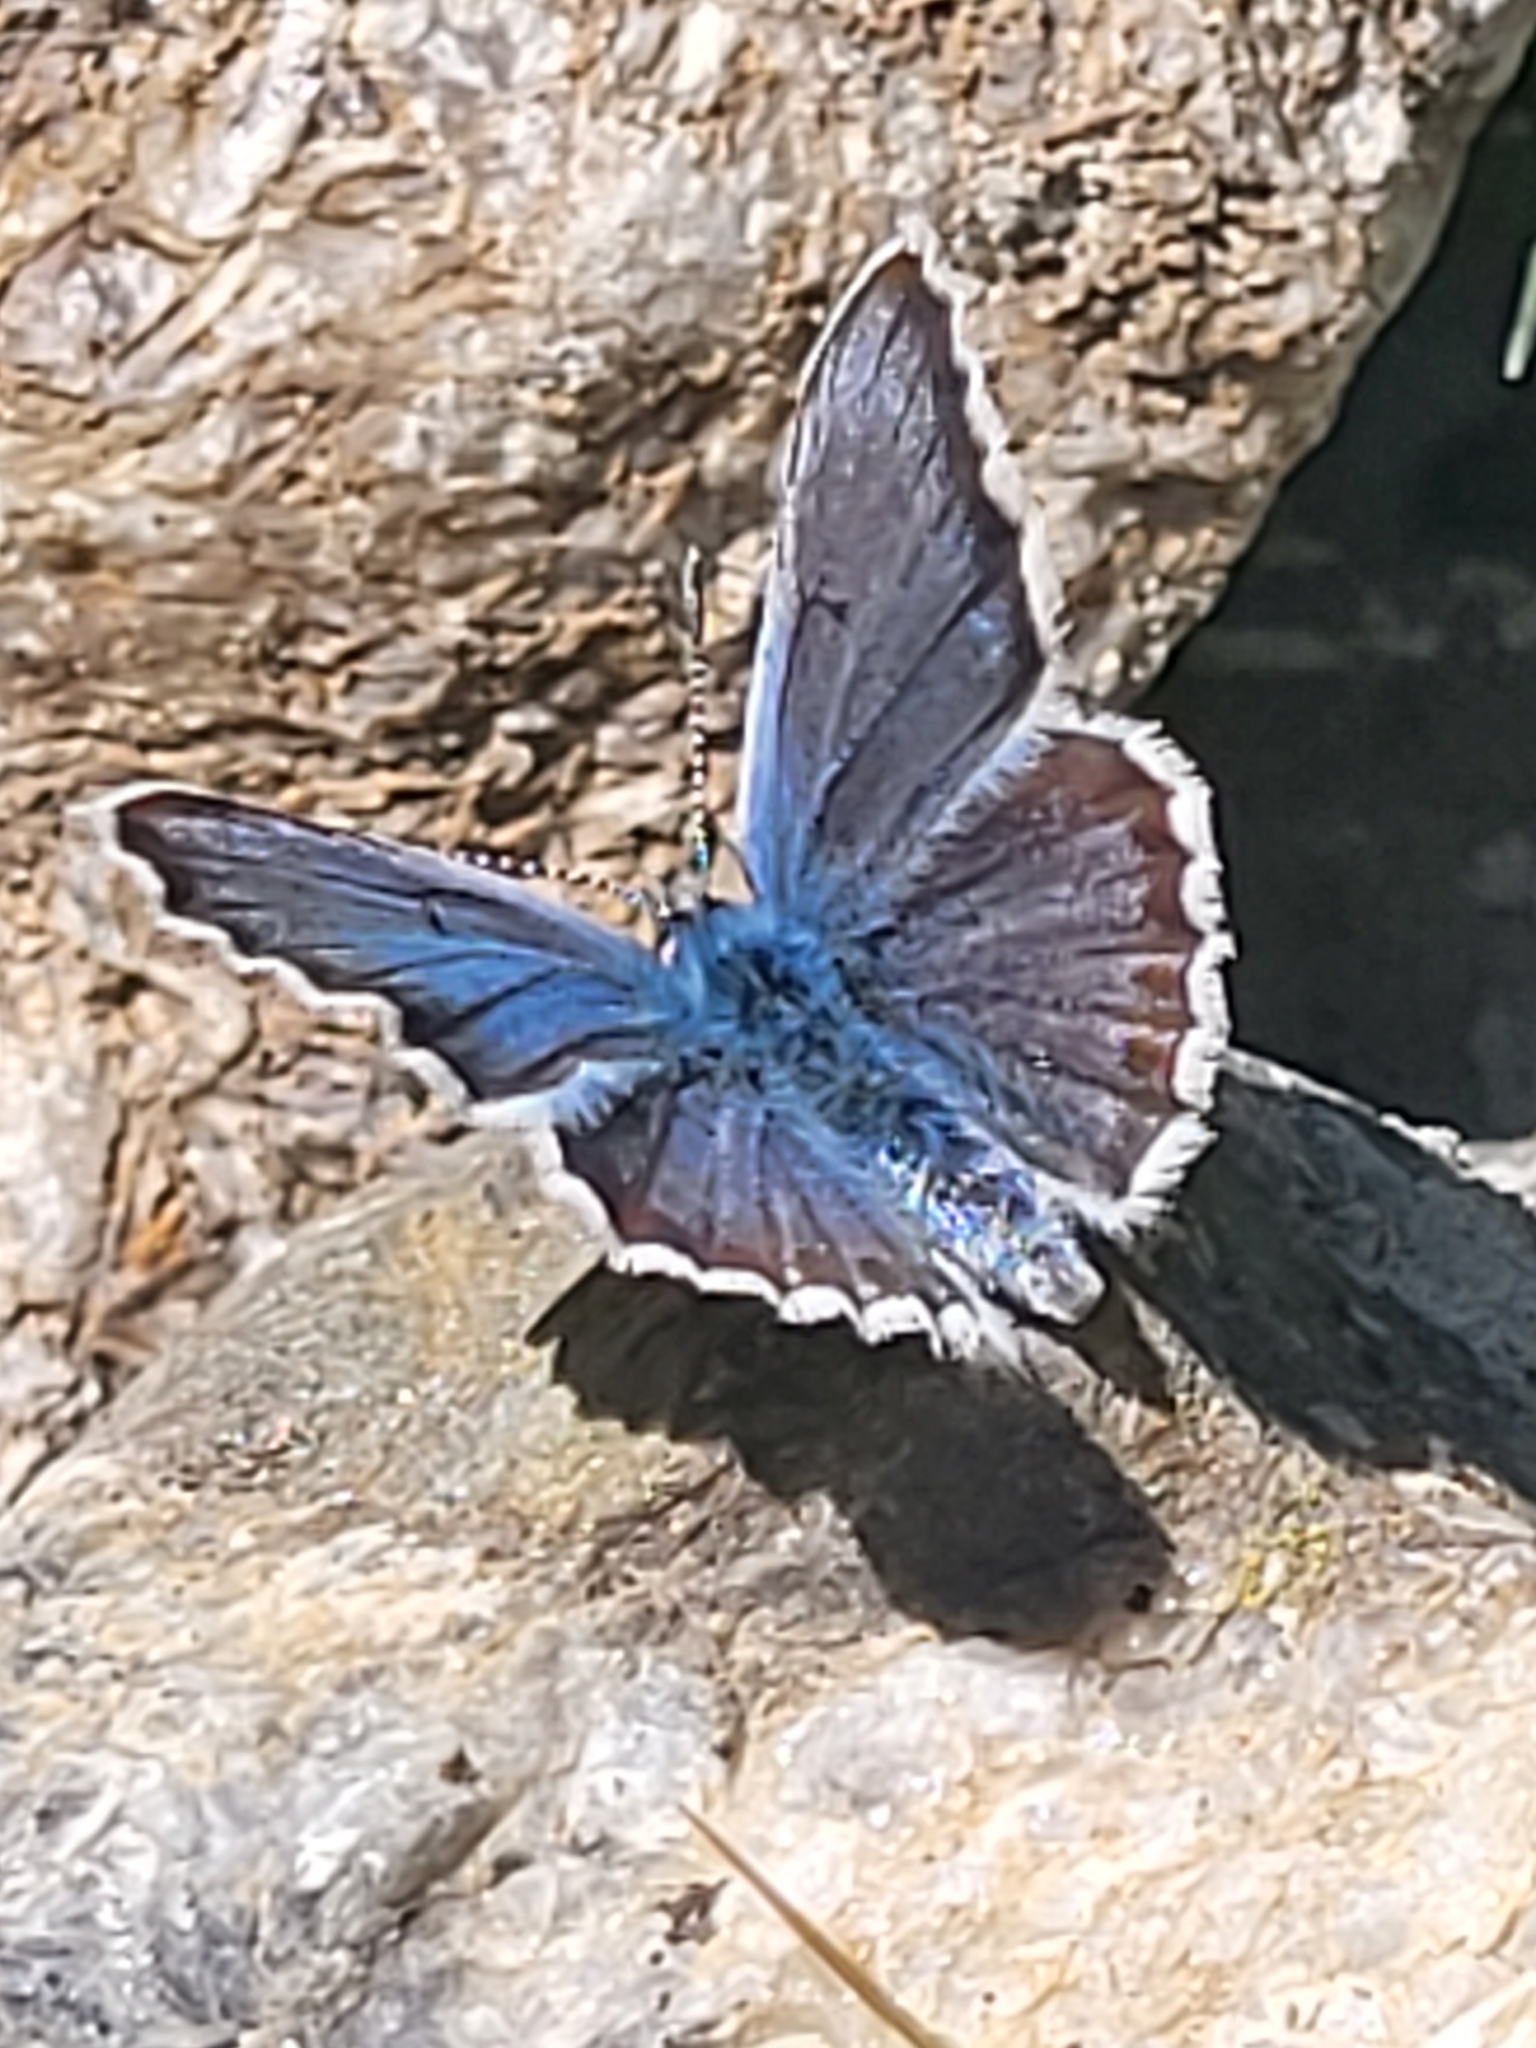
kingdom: Animalia
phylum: Arthropoda
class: Insecta
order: Lepidoptera
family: Lycaenidae
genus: Lycaeides
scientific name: Lycaeides idas
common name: Northern blue
